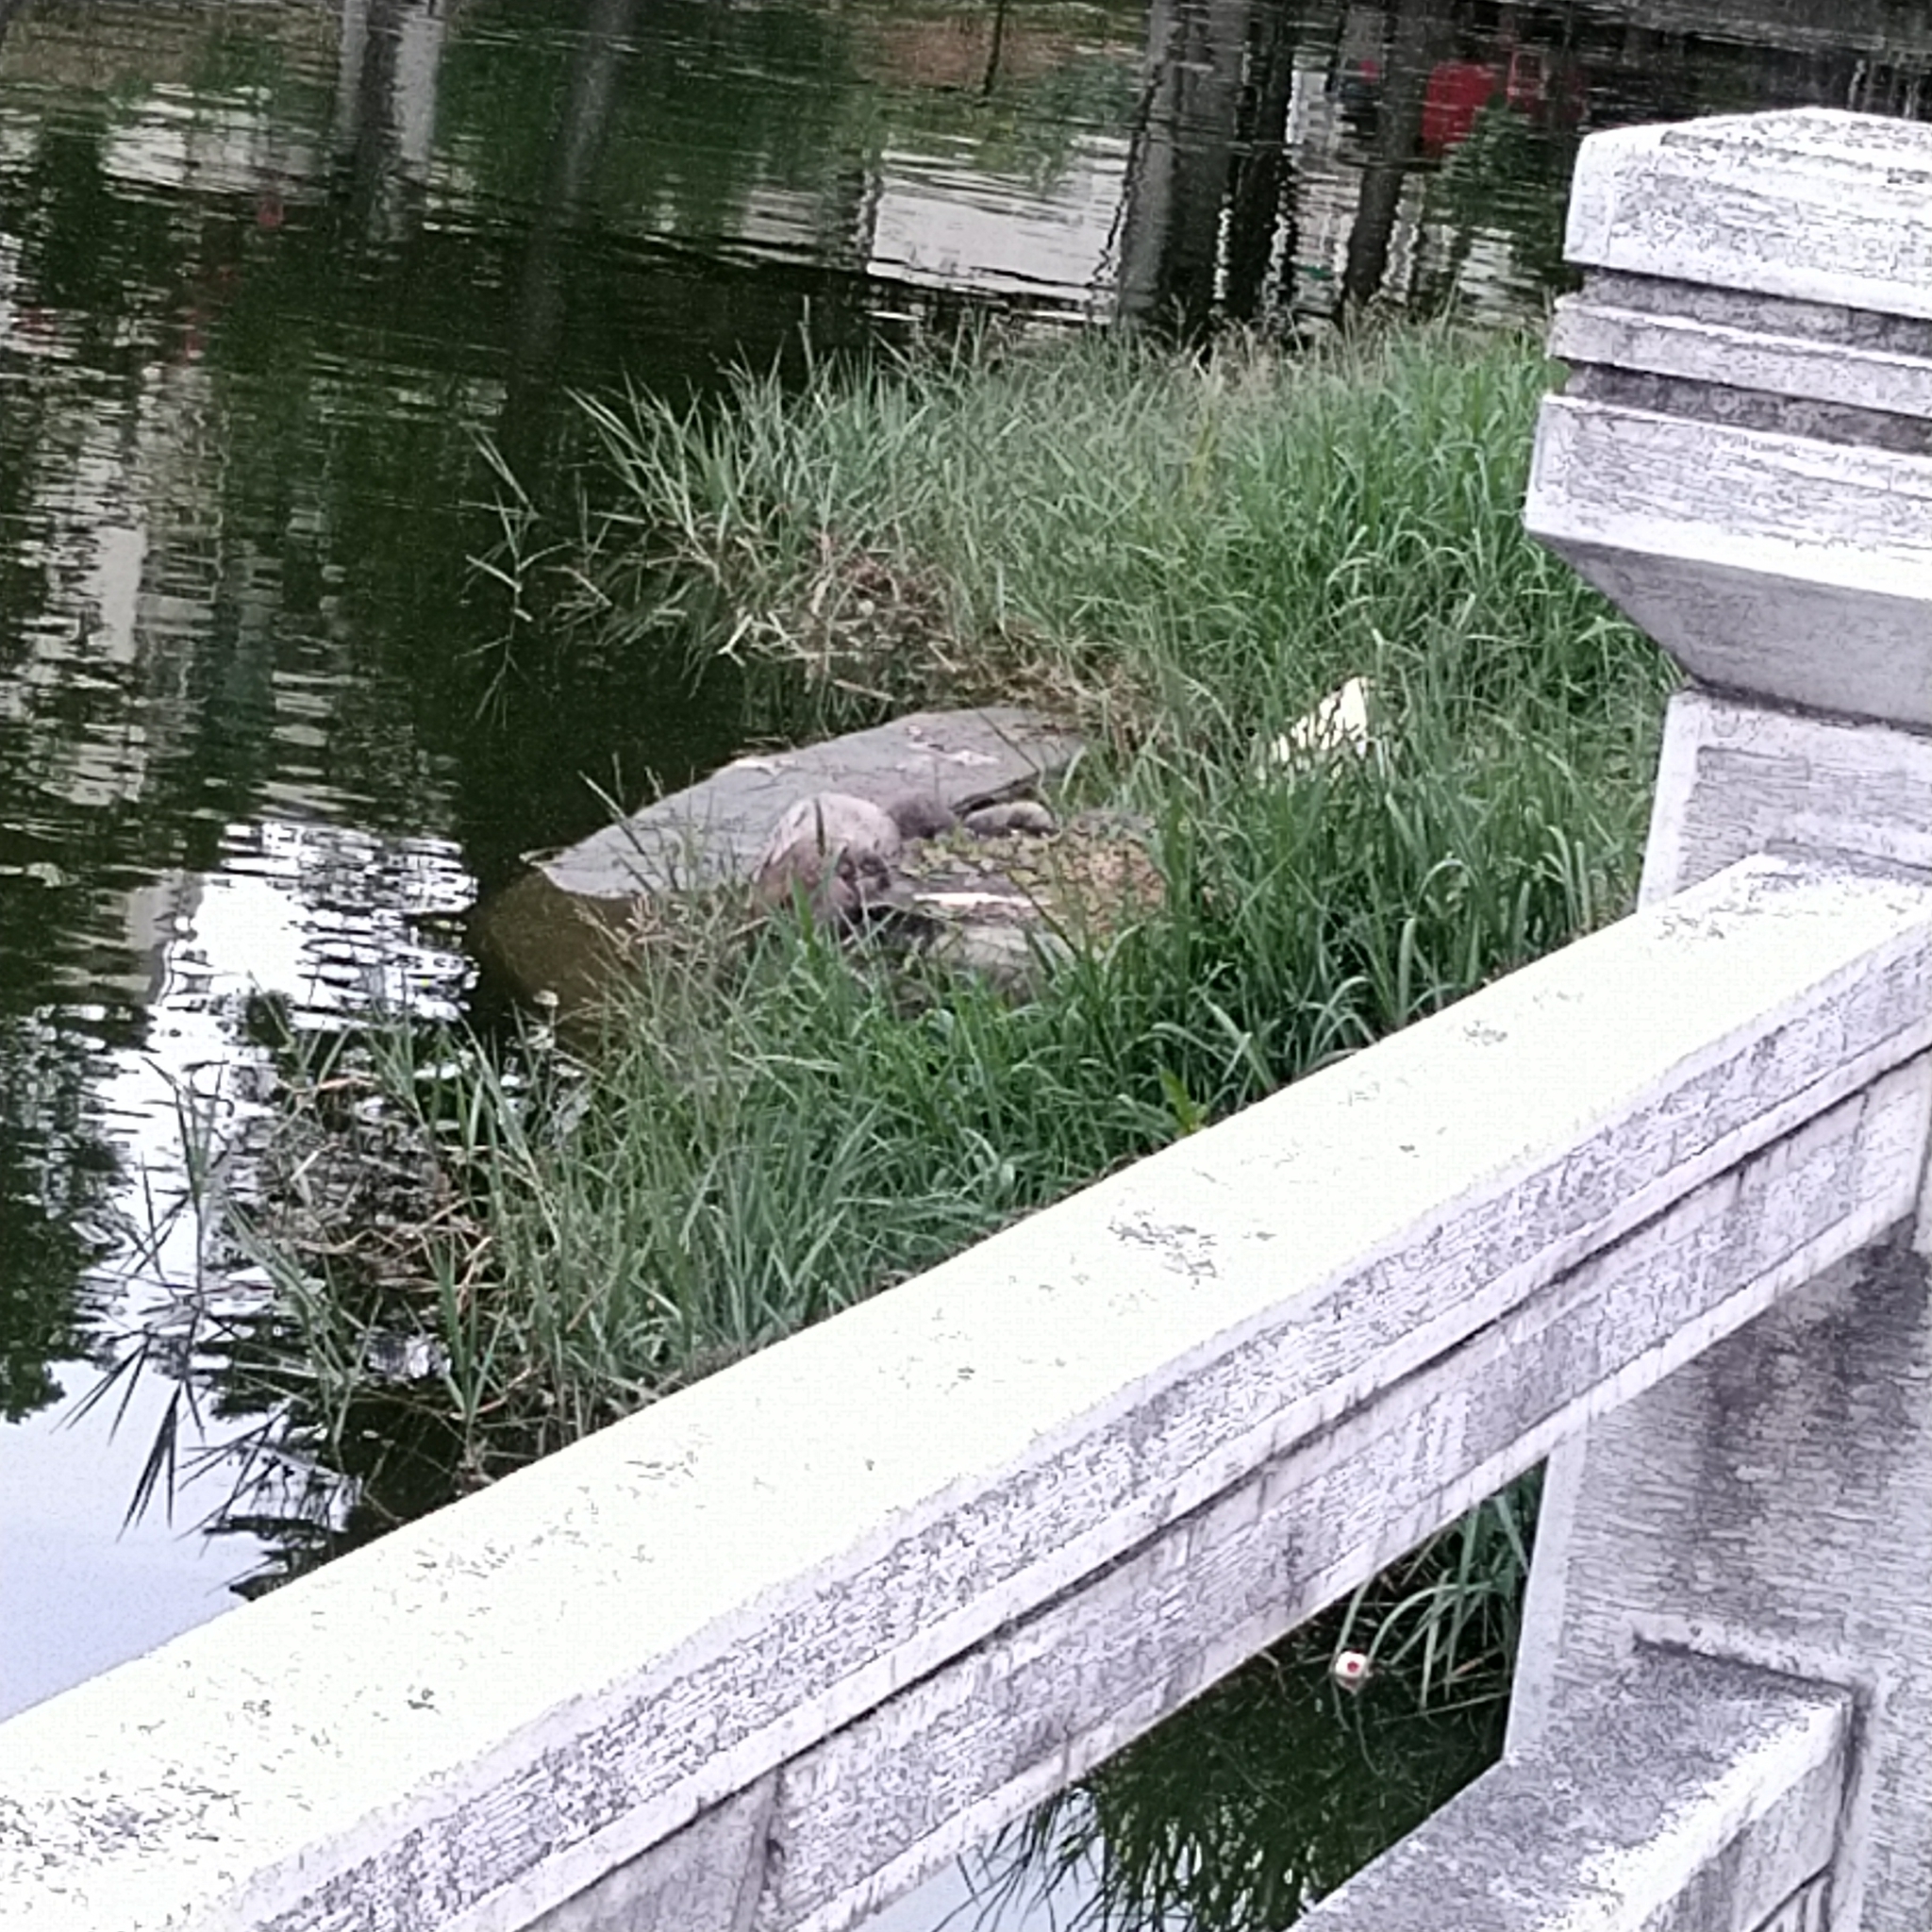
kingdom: Animalia
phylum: Chordata
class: Aves
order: Pelecaniformes
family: Ardeidae
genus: Egretta
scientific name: Egretta garzetta
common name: Little egret
